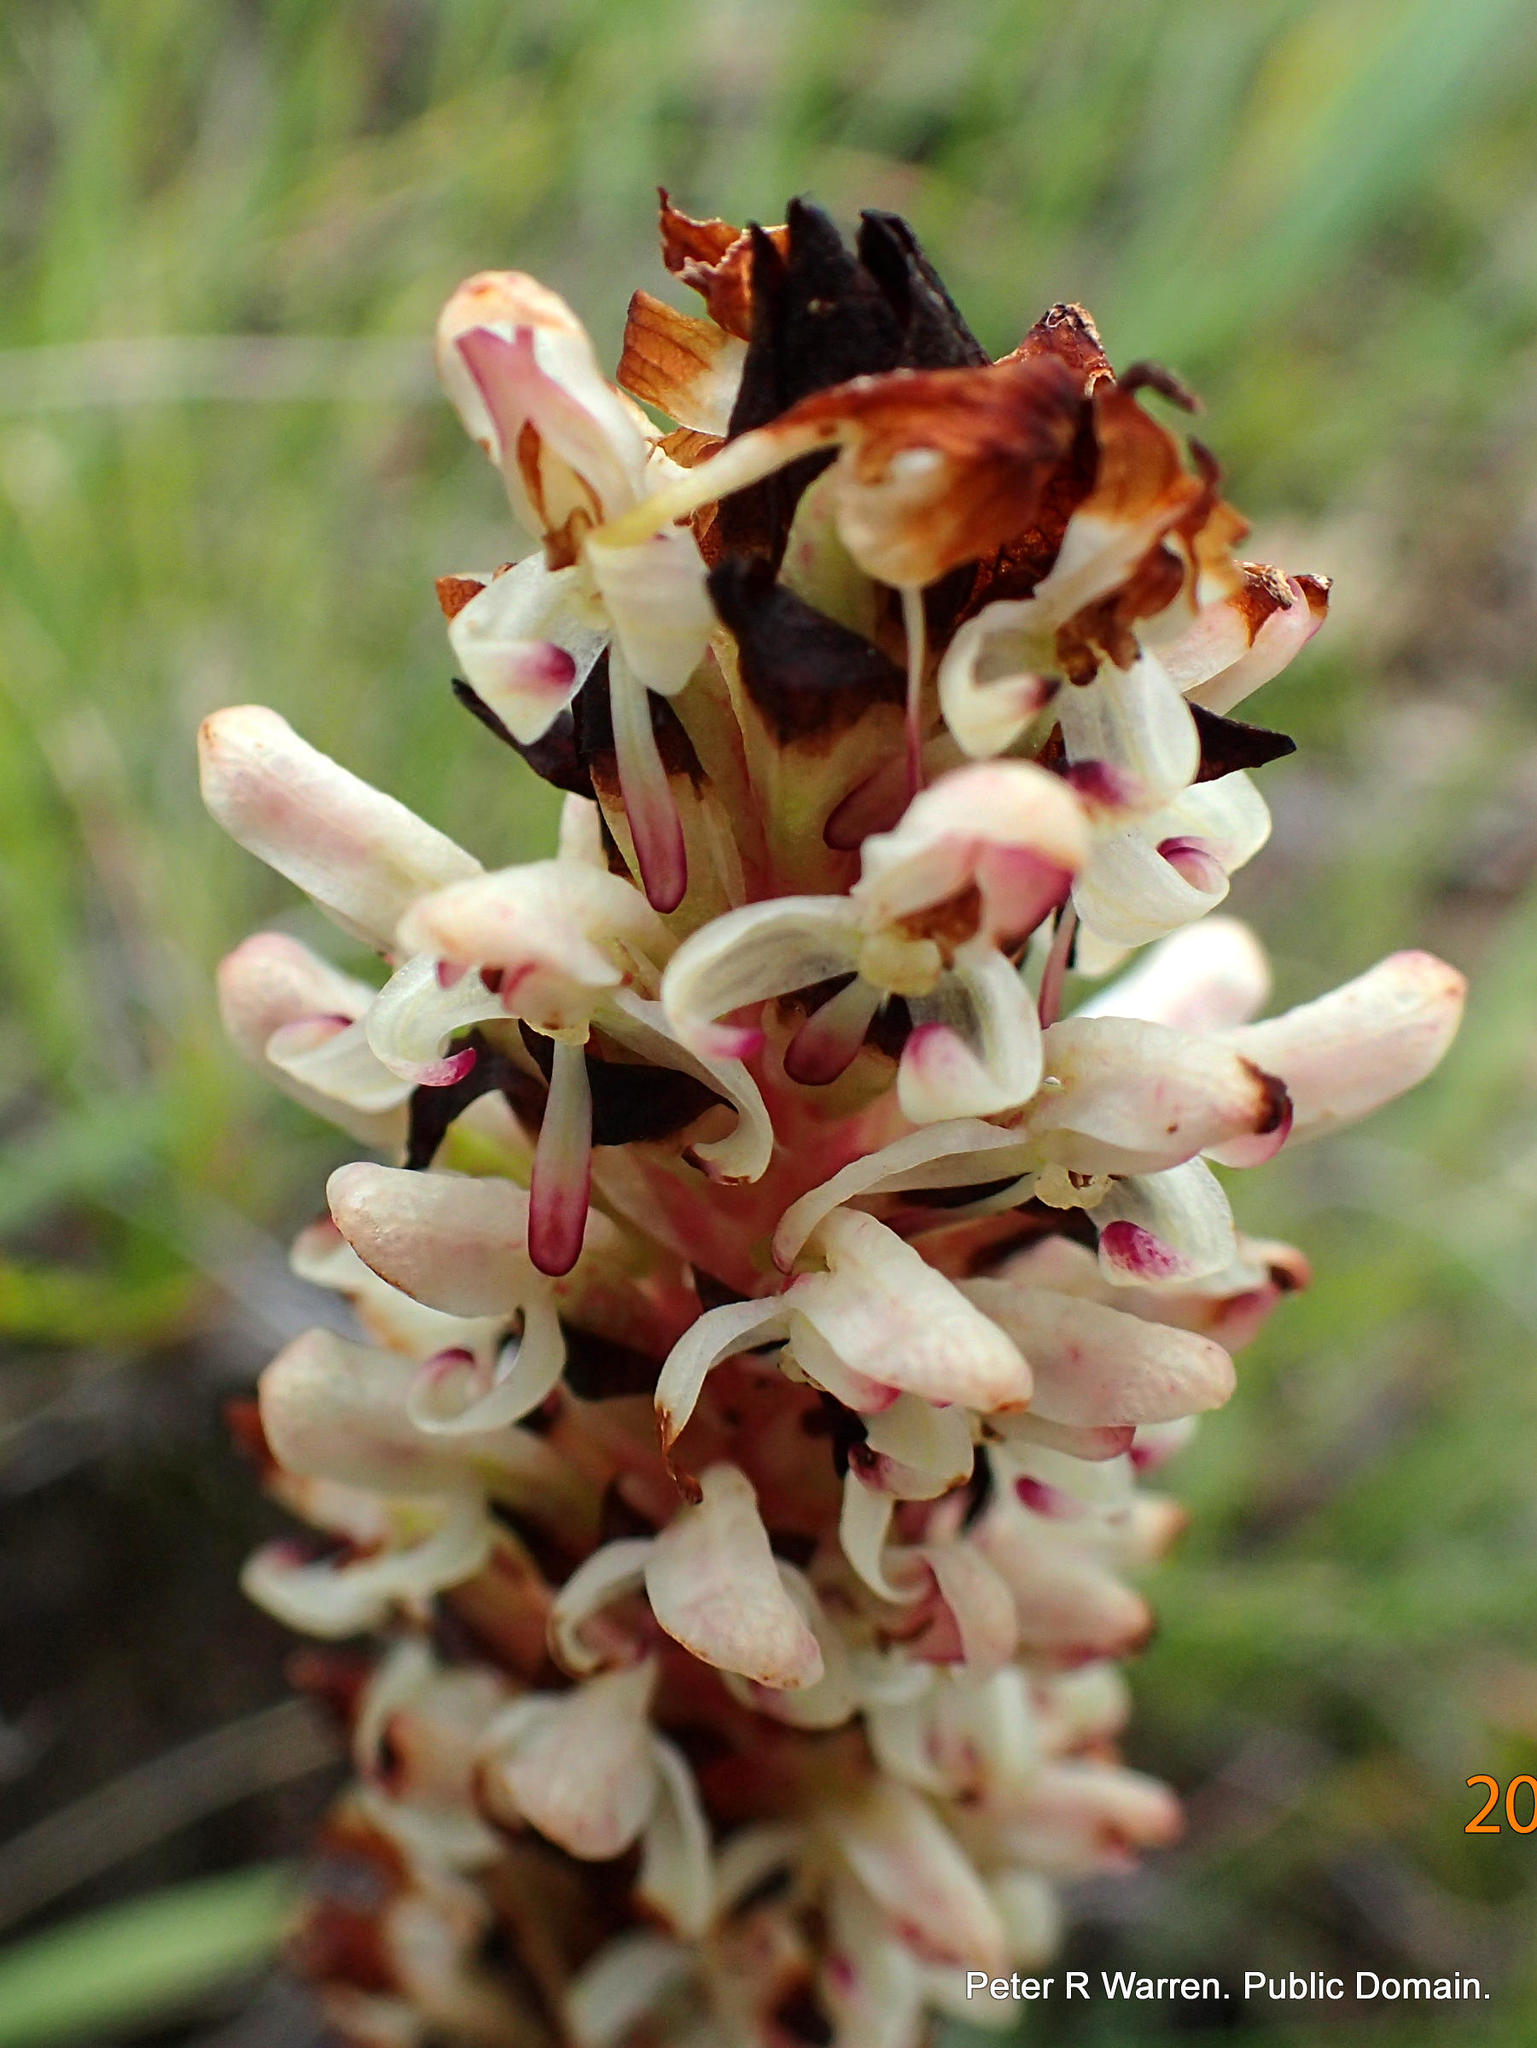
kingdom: Plantae
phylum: Tracheophyta
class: Liliopsida
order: Asparagales
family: Orchidaceae
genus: Disa
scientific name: Disa fragrans
